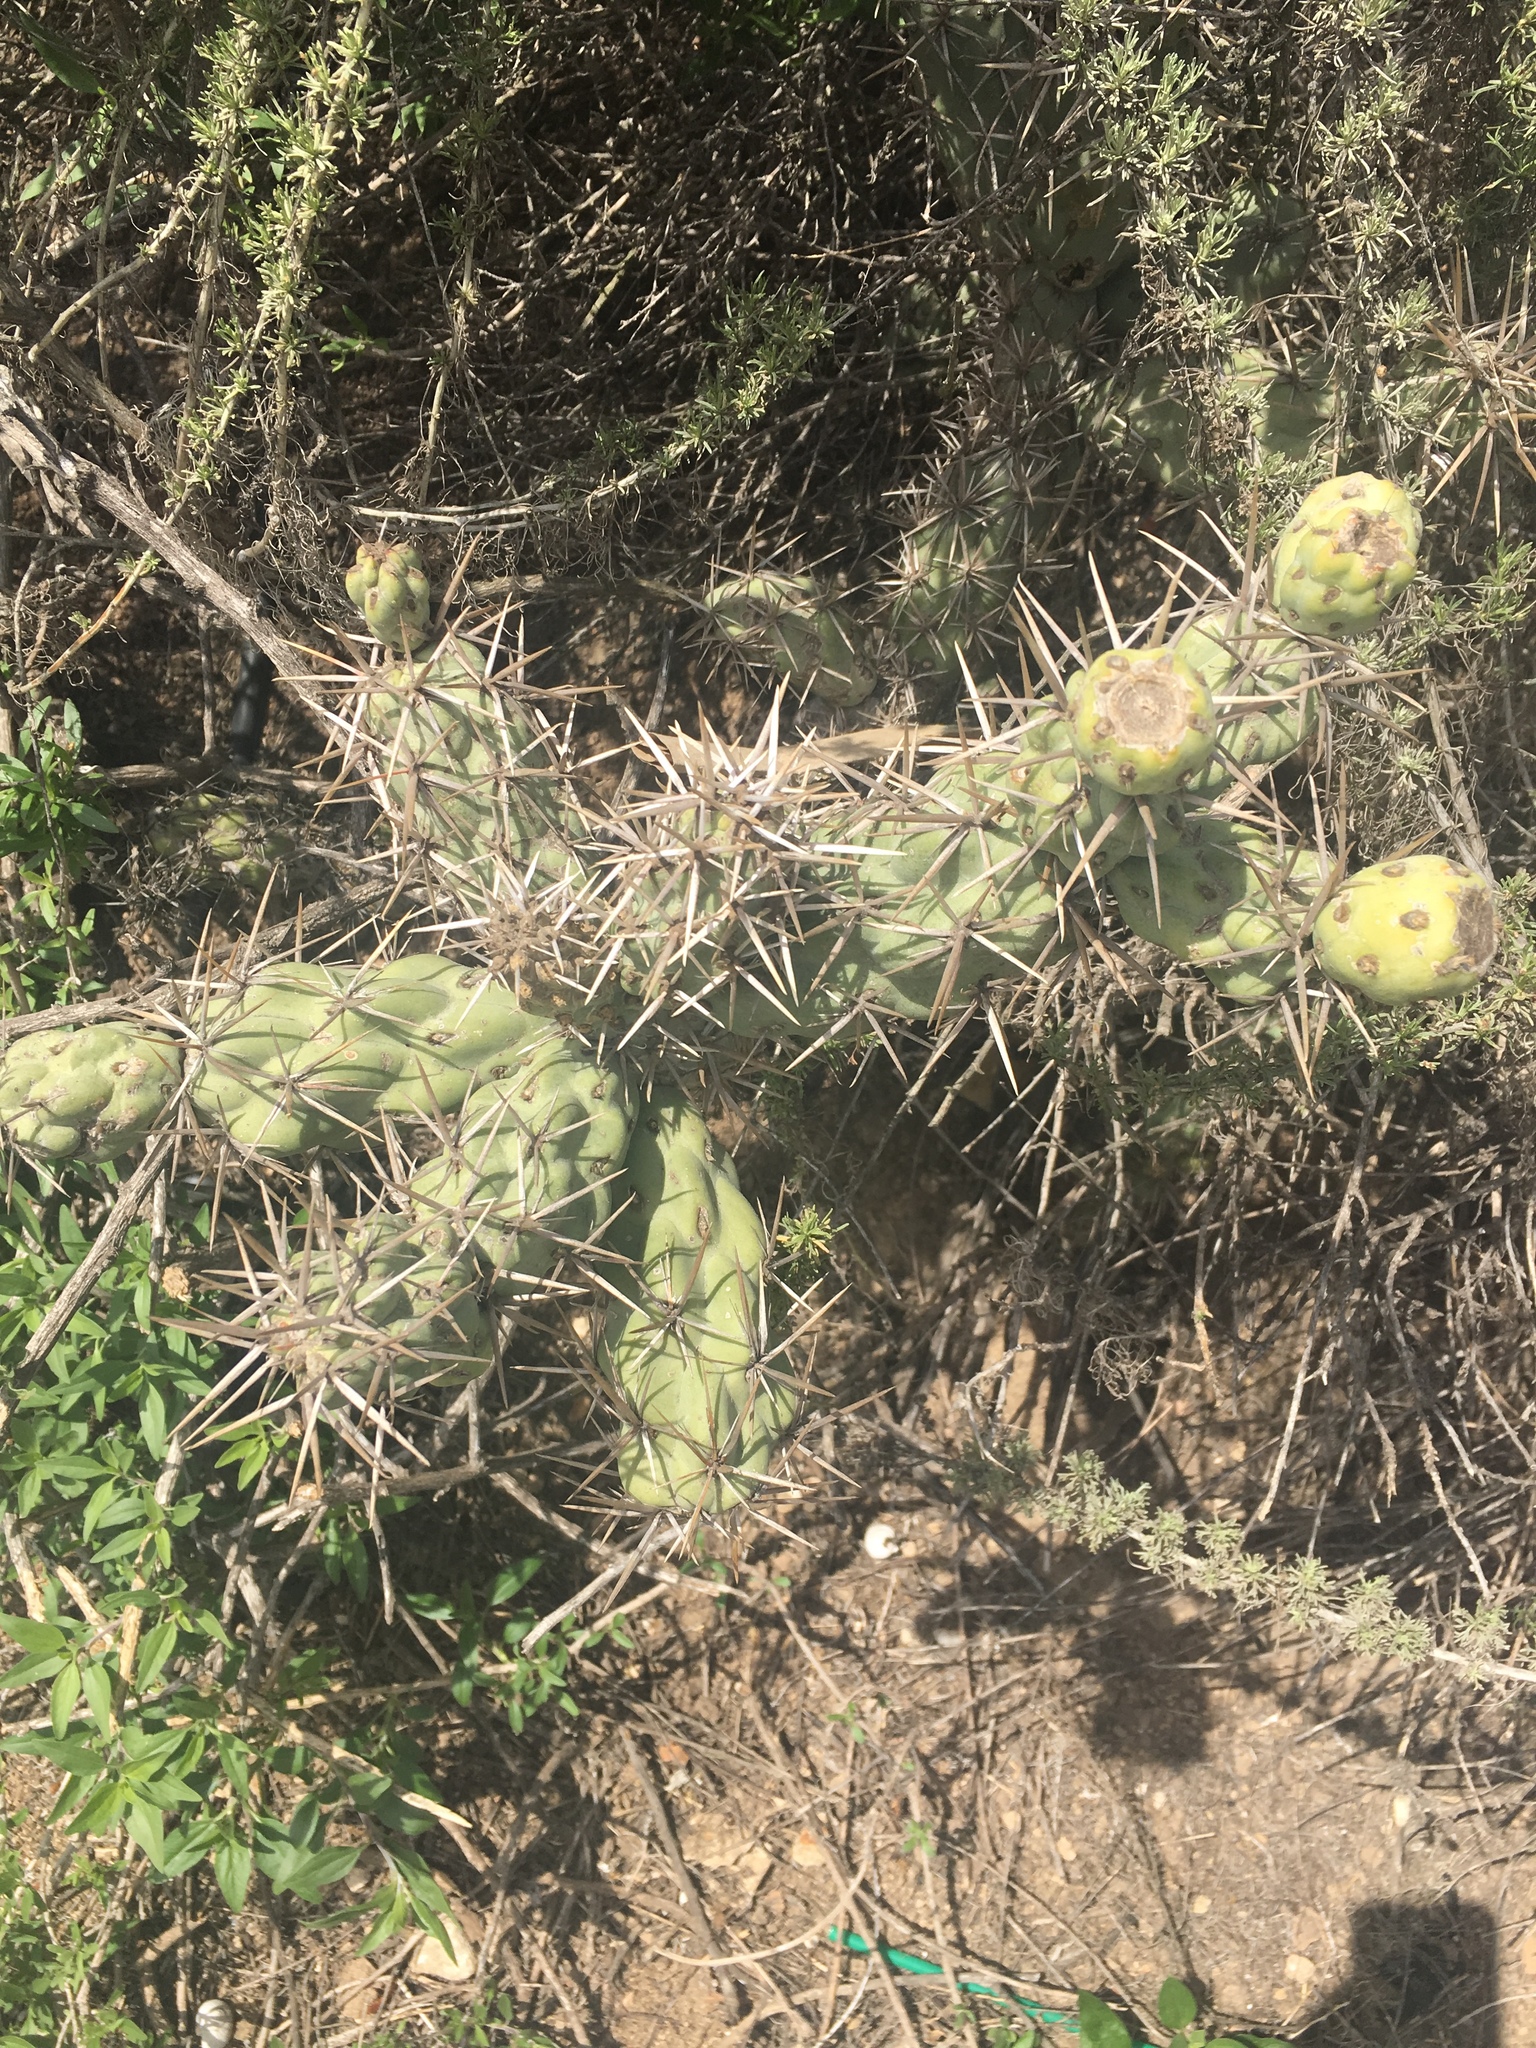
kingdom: Plantae
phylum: Tracheophyta
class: Magnoliopsida
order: Caryophyllales
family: Cactaceae
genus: Cylindropuntia
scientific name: Cylindropuntia prolifera
